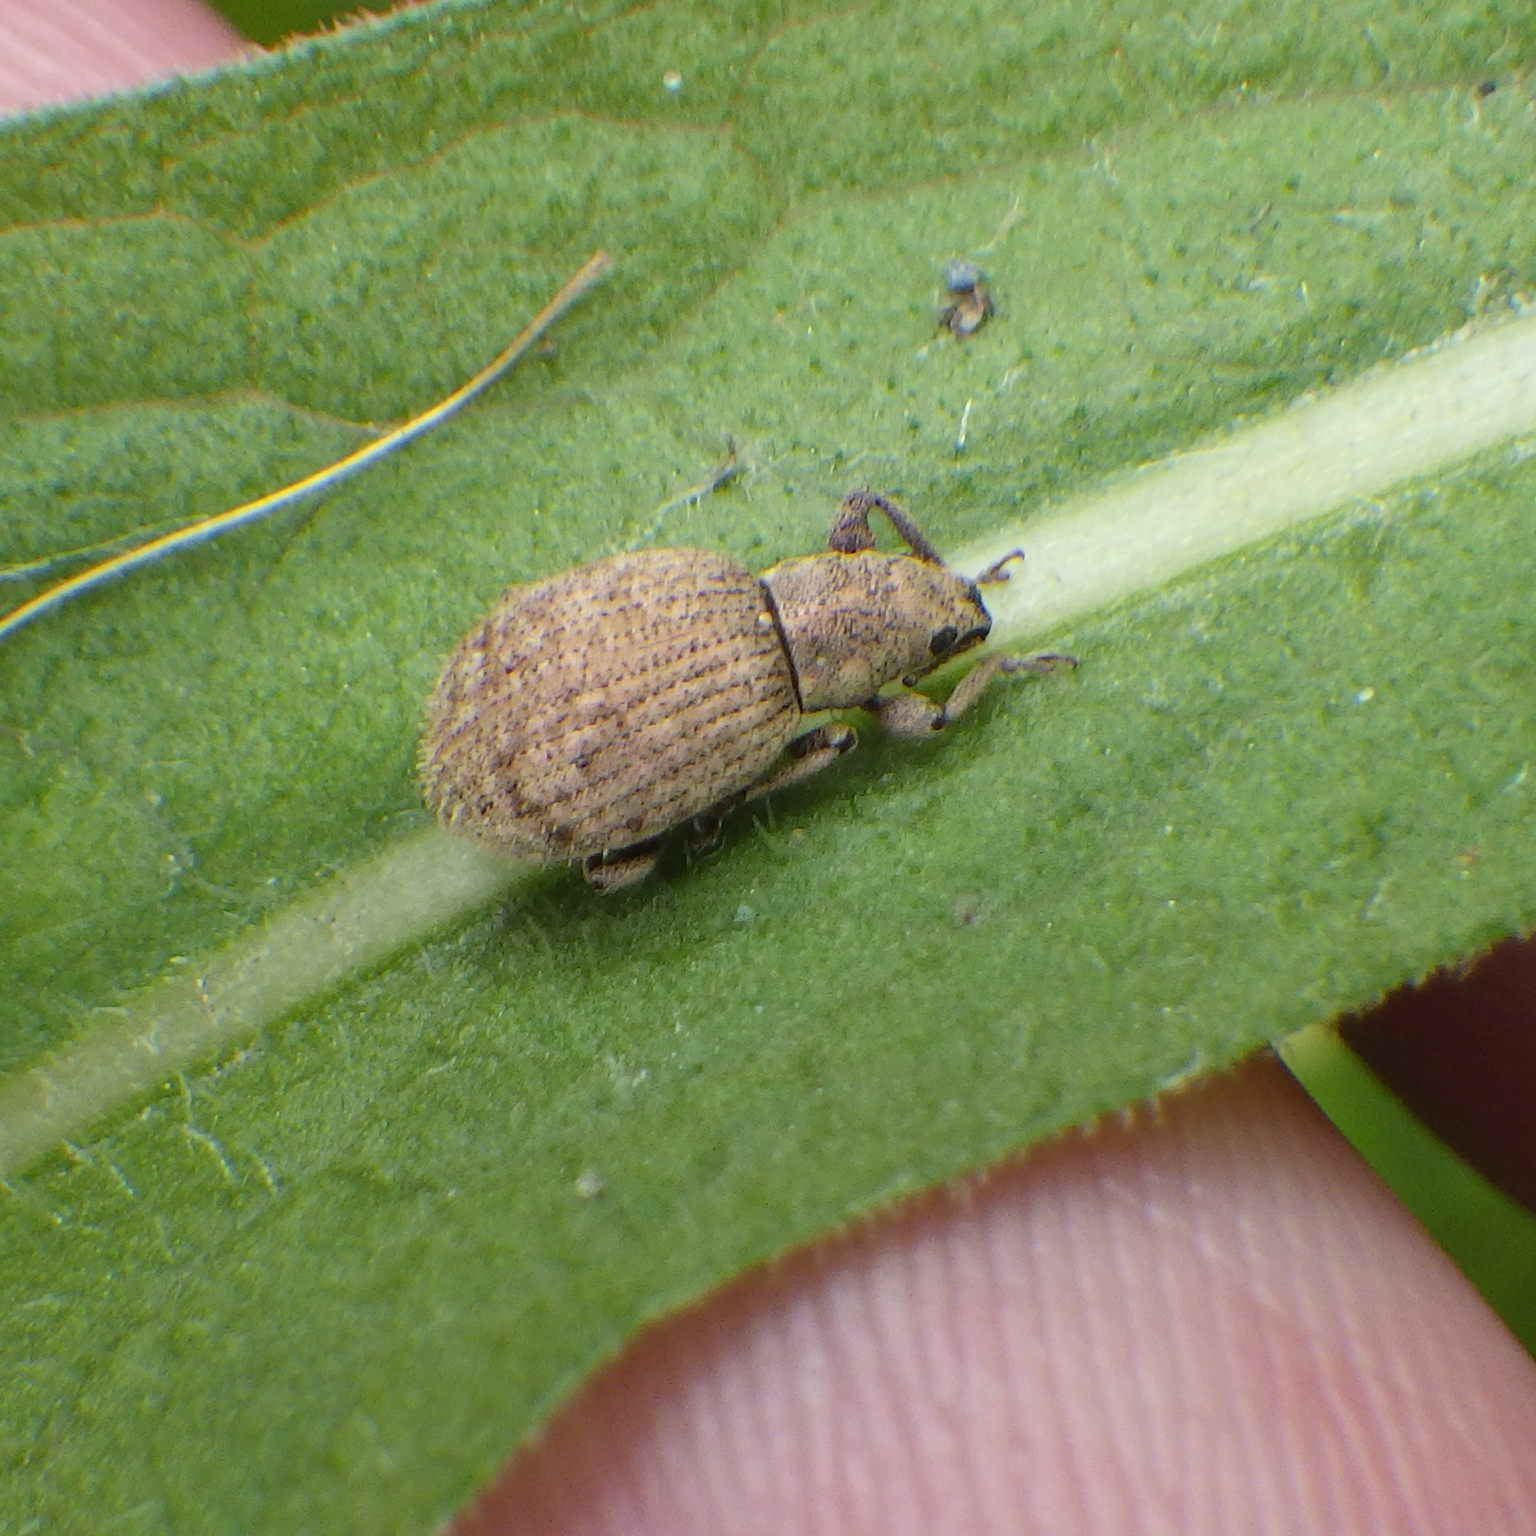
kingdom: Animalia
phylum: Arthropoda
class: Insecta
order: Coleoptera
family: Curculionidae
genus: Sciaphilus
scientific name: Sciaphilus asperatus
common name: Weevil
